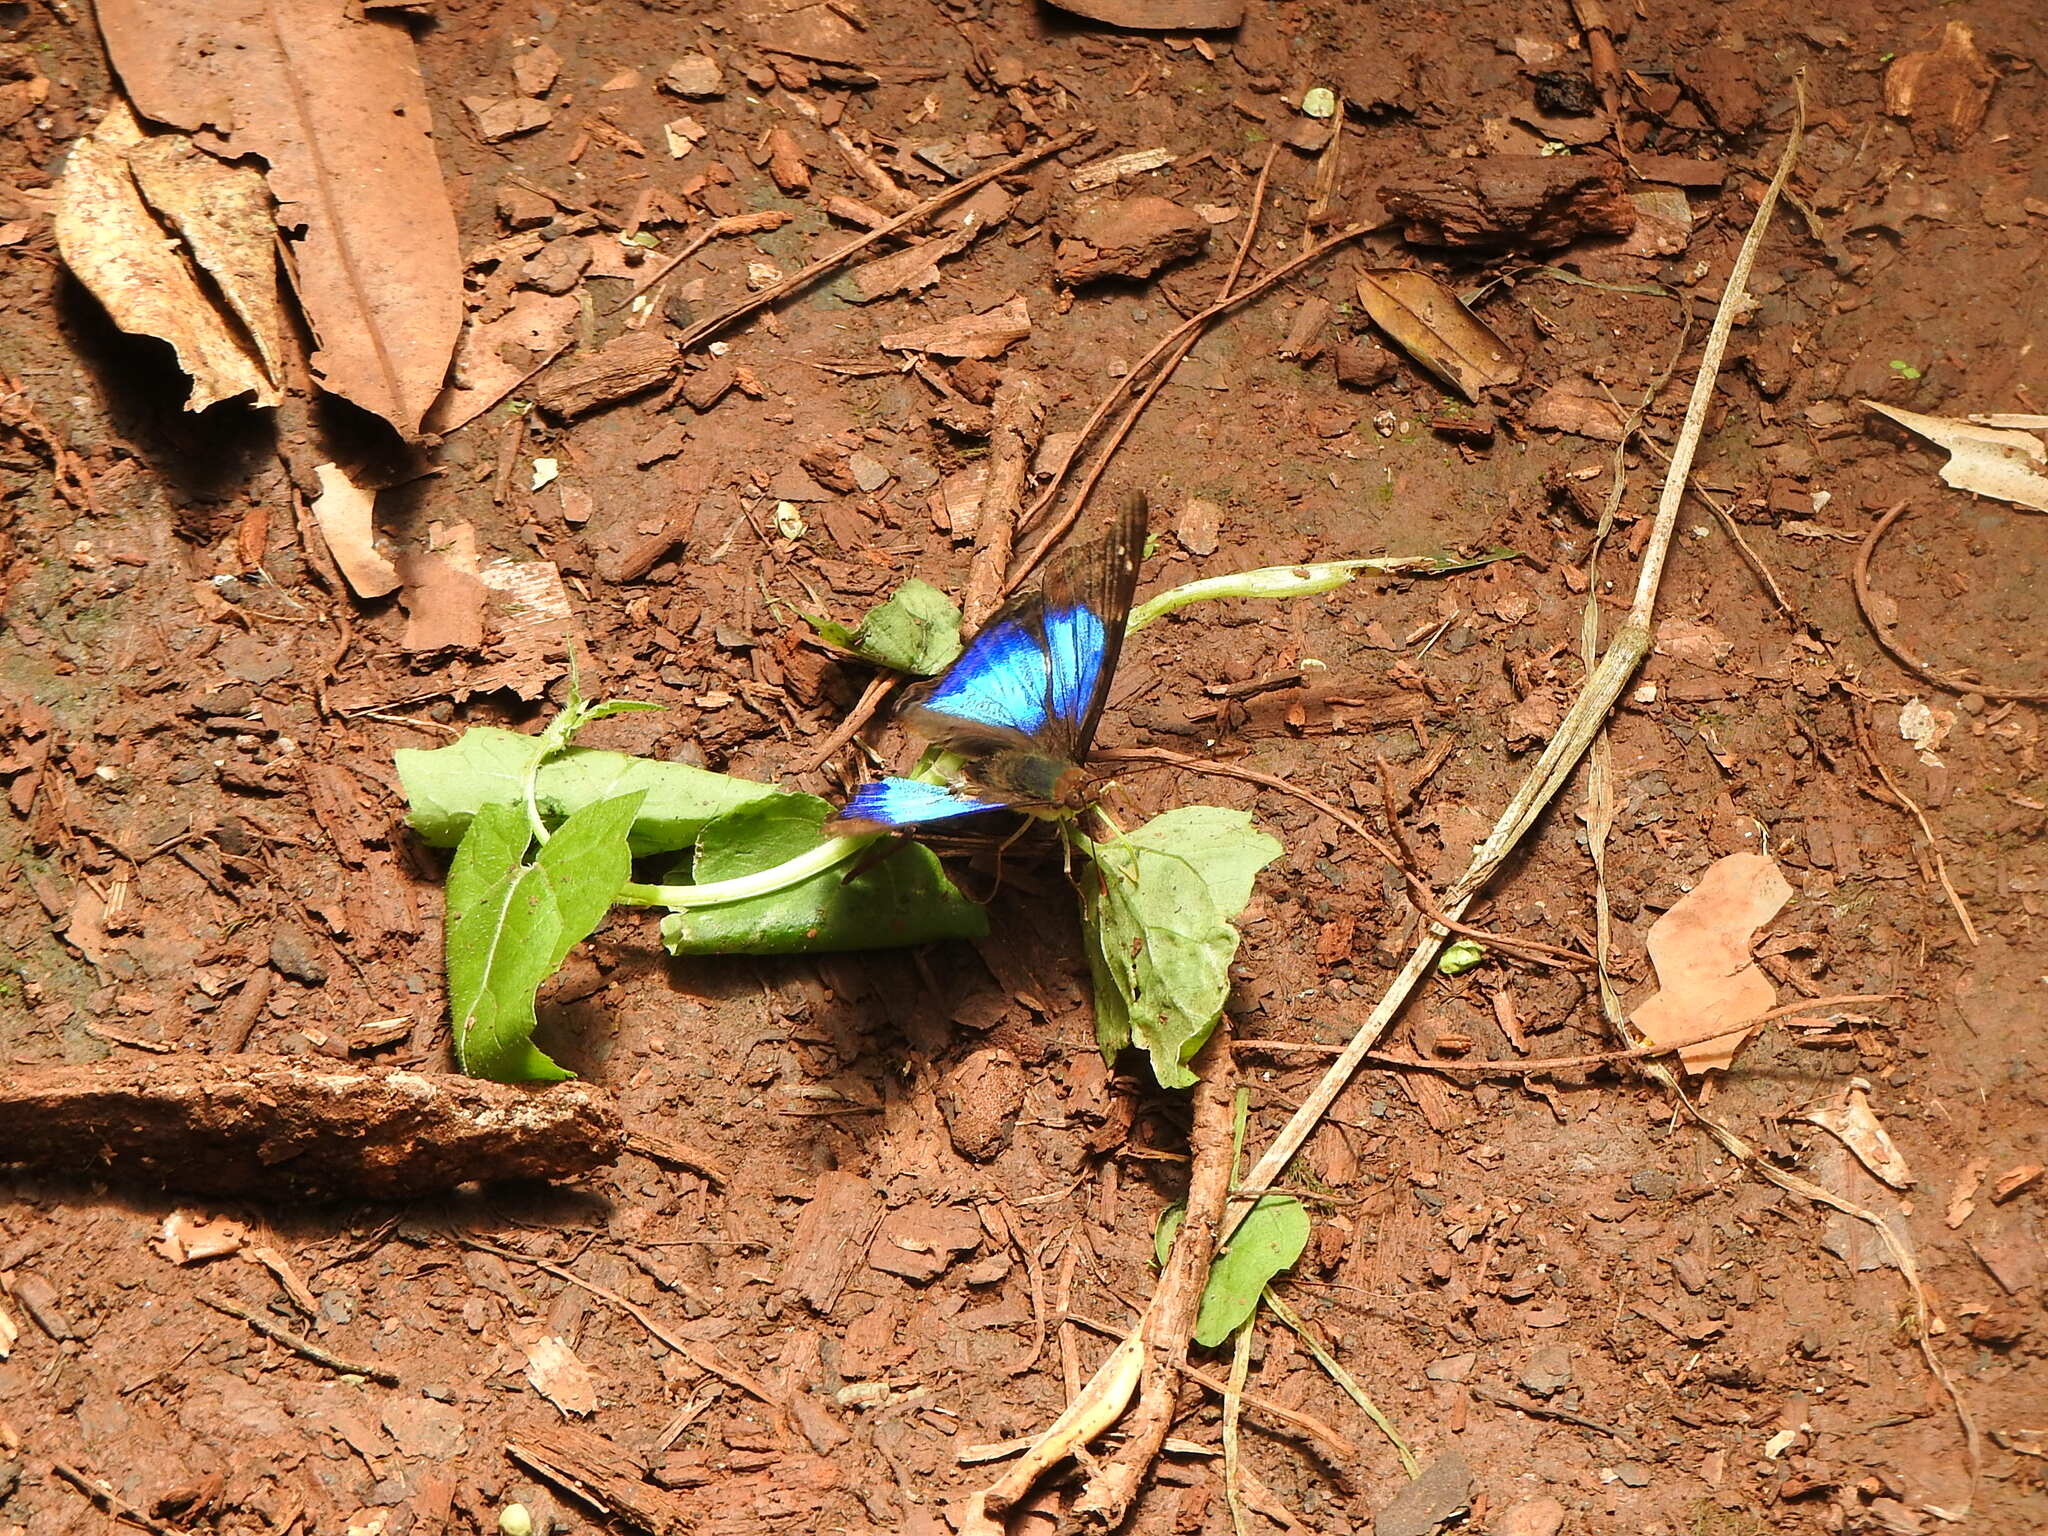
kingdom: Animalia
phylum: Arthropoda
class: Insecta
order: Lepidoptera
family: Nymphalidae
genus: Doxocopa
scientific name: Doxocopa laurentia
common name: Turquoise emperor
